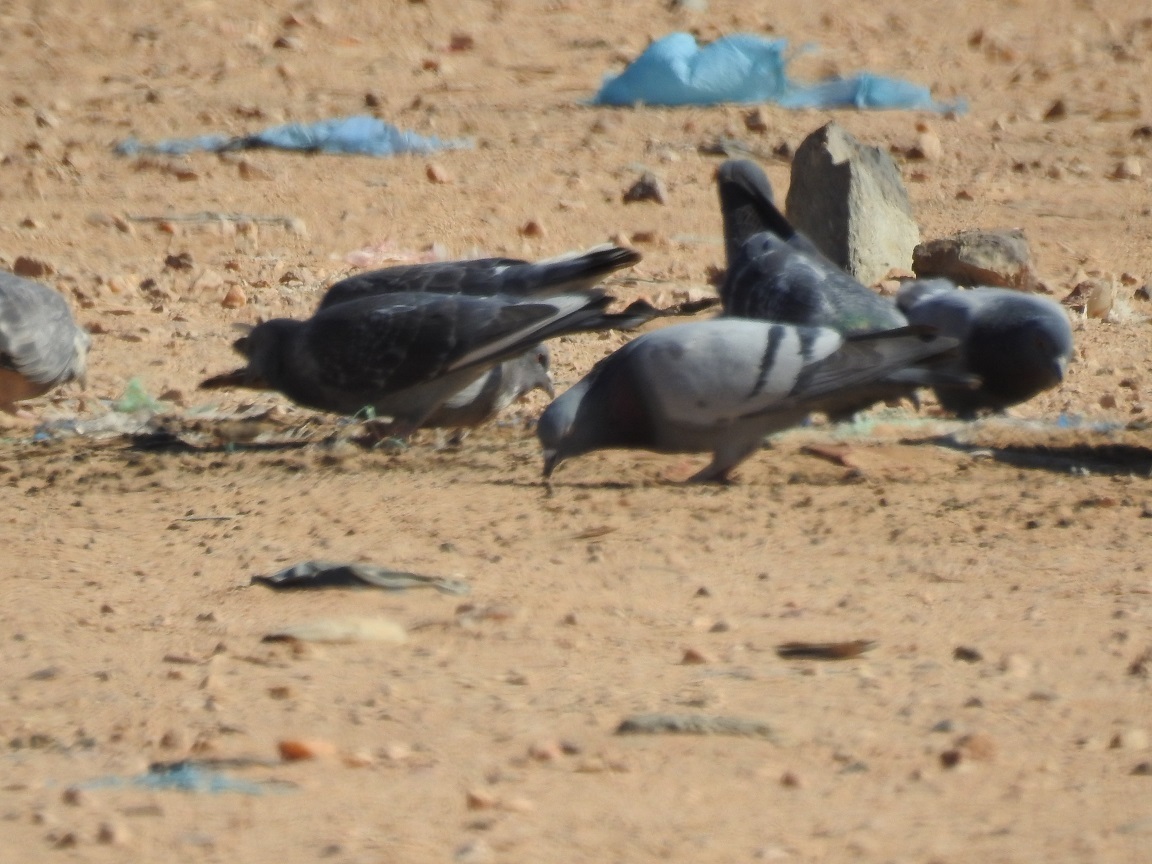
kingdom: Animalia
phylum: Chordata
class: Aves
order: Columbiformes
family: Columbidae
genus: Columba
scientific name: Columba livia
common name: Rock pigeon
